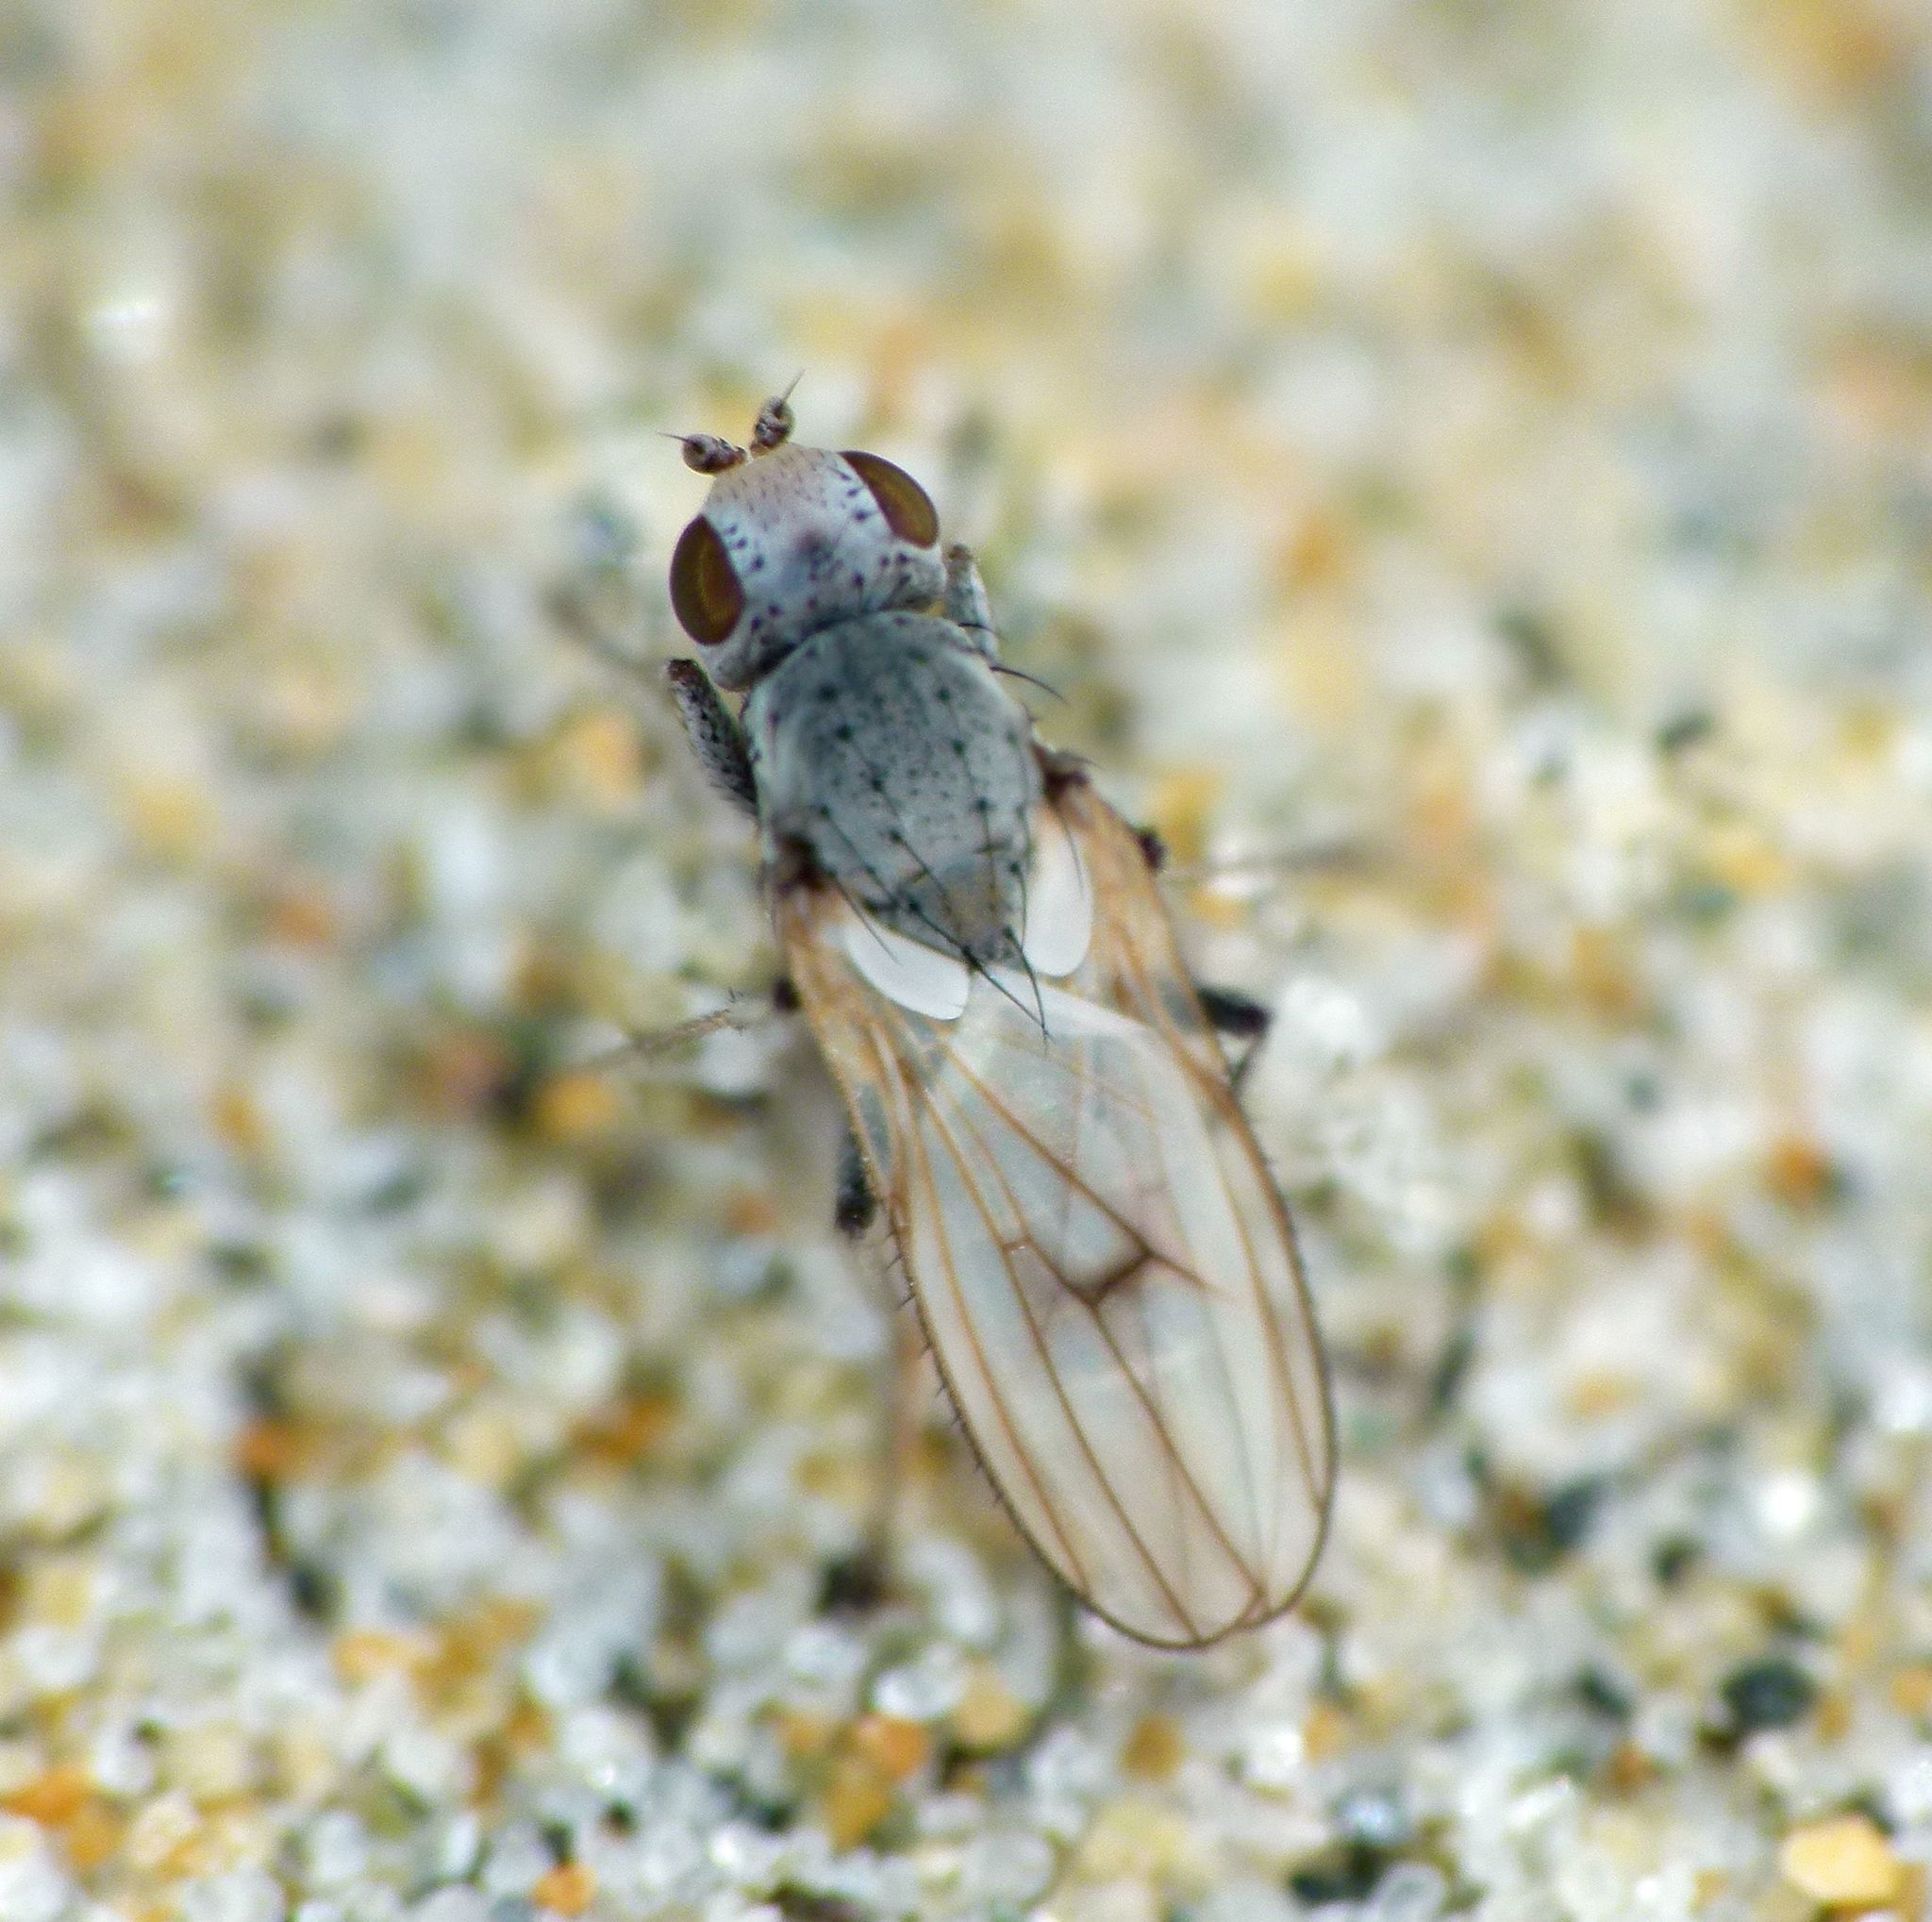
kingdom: Animalia
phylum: Arthropoda
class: Insecta
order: Diptera
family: Canacidae
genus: Tethinosoma
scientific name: Tethinosoma fulvifrons
